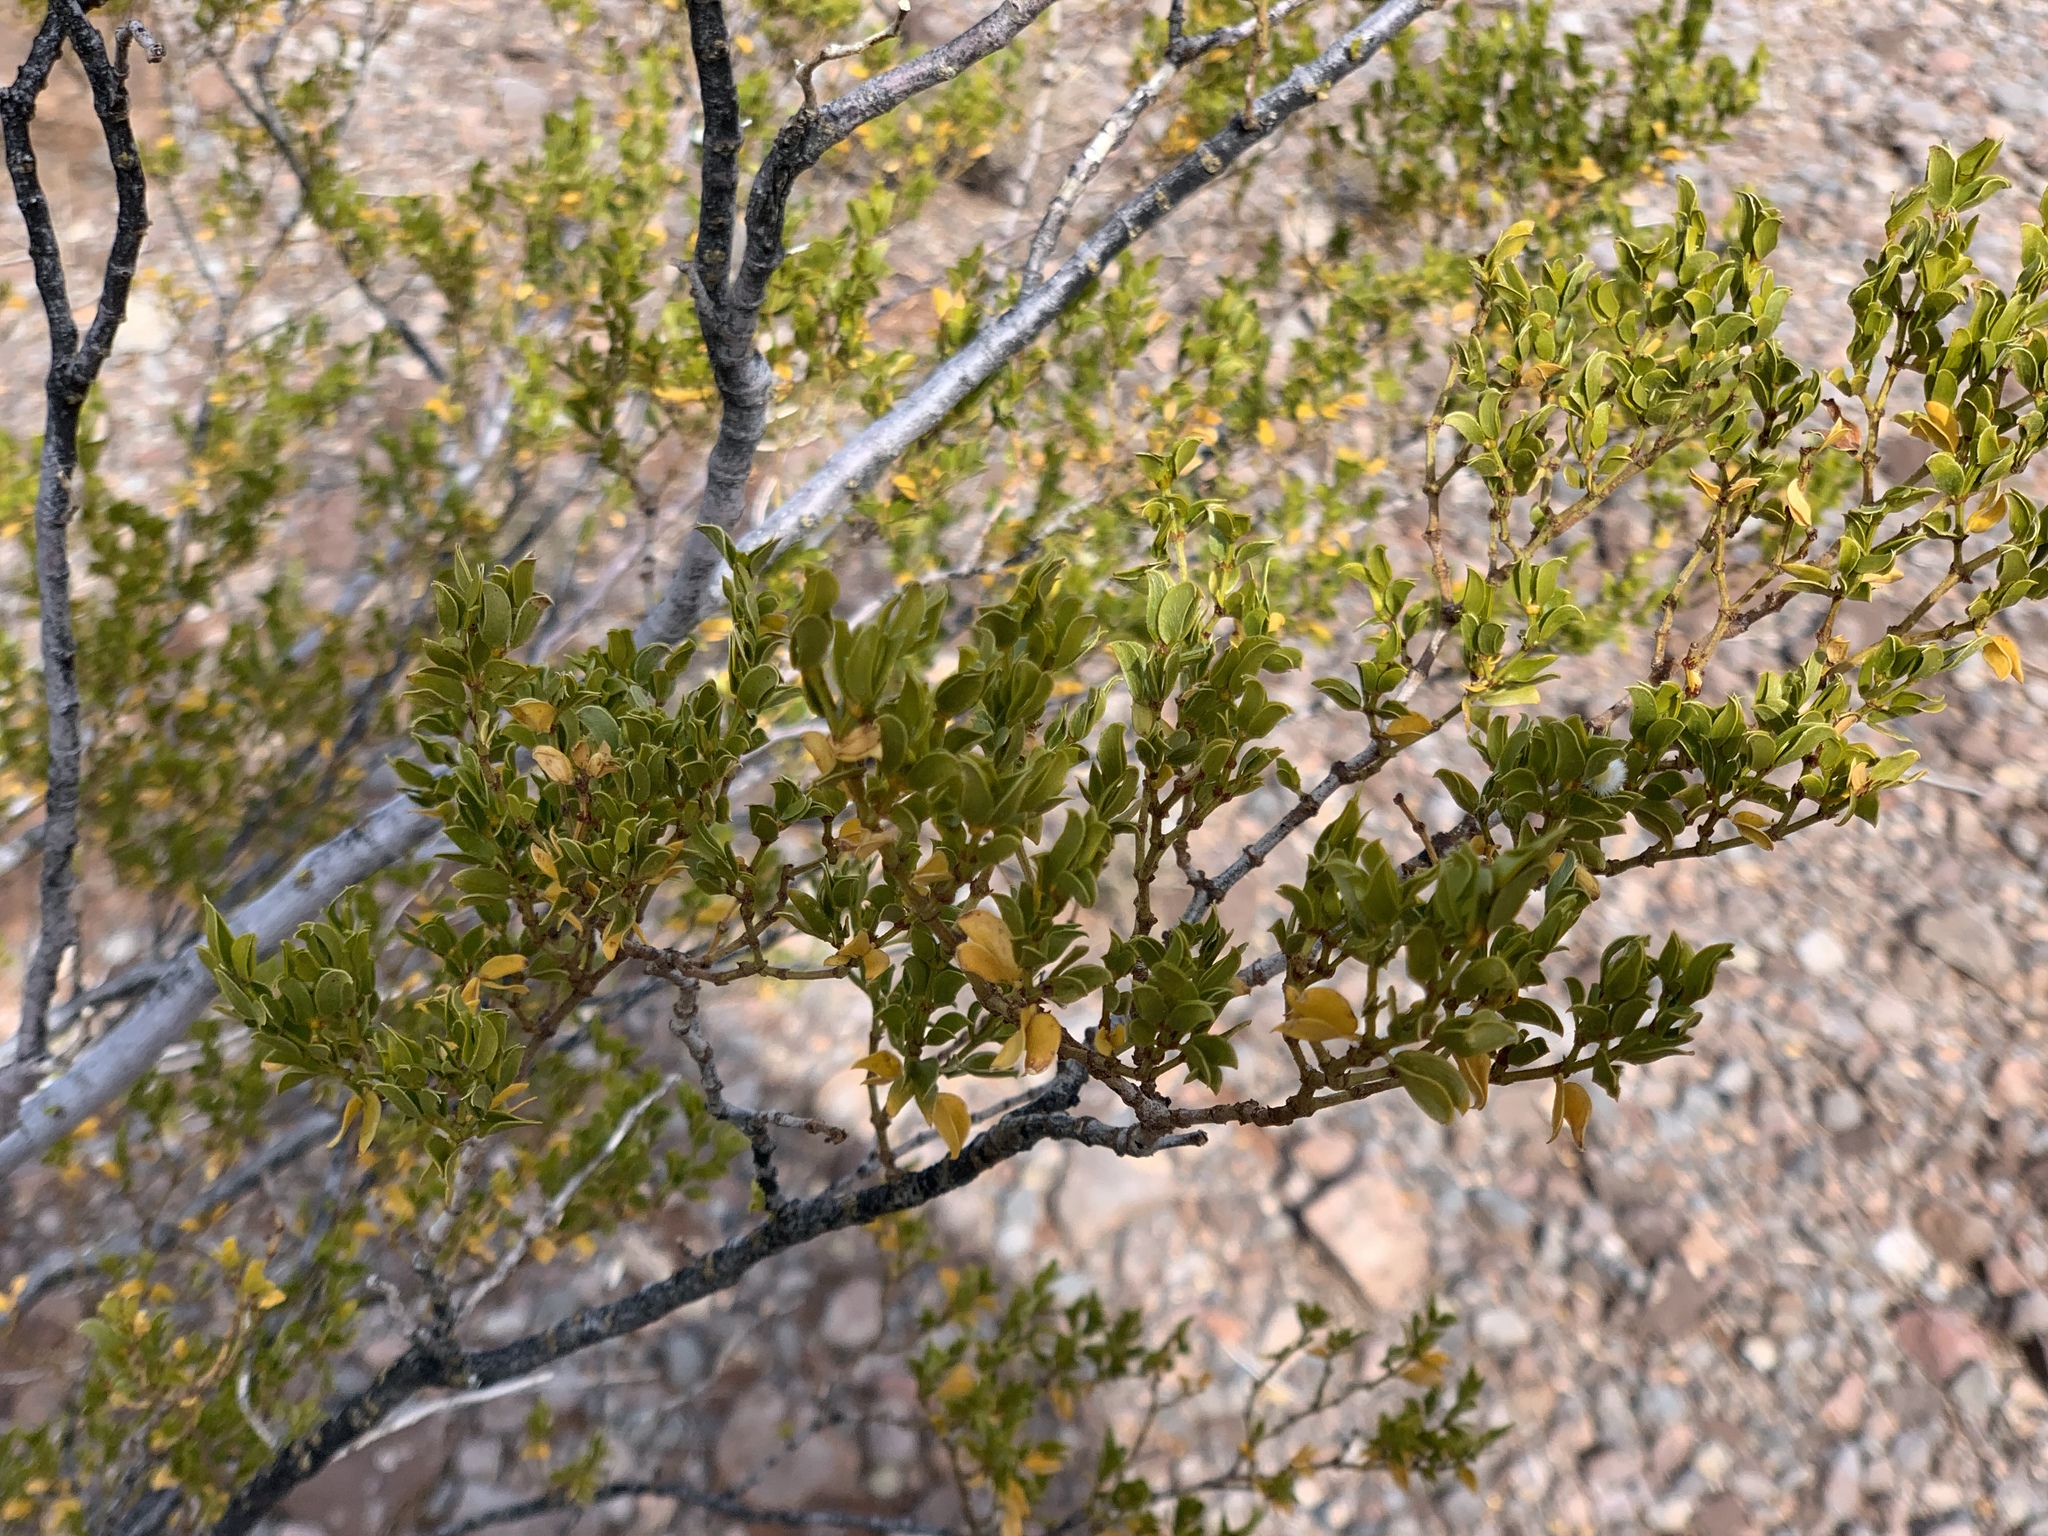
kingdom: Plantae
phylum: Tracheophyta
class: Magnoliopsida
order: Zygophyllales
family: Zygophyllaceae
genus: Larrea
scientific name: Larrea tridentata
